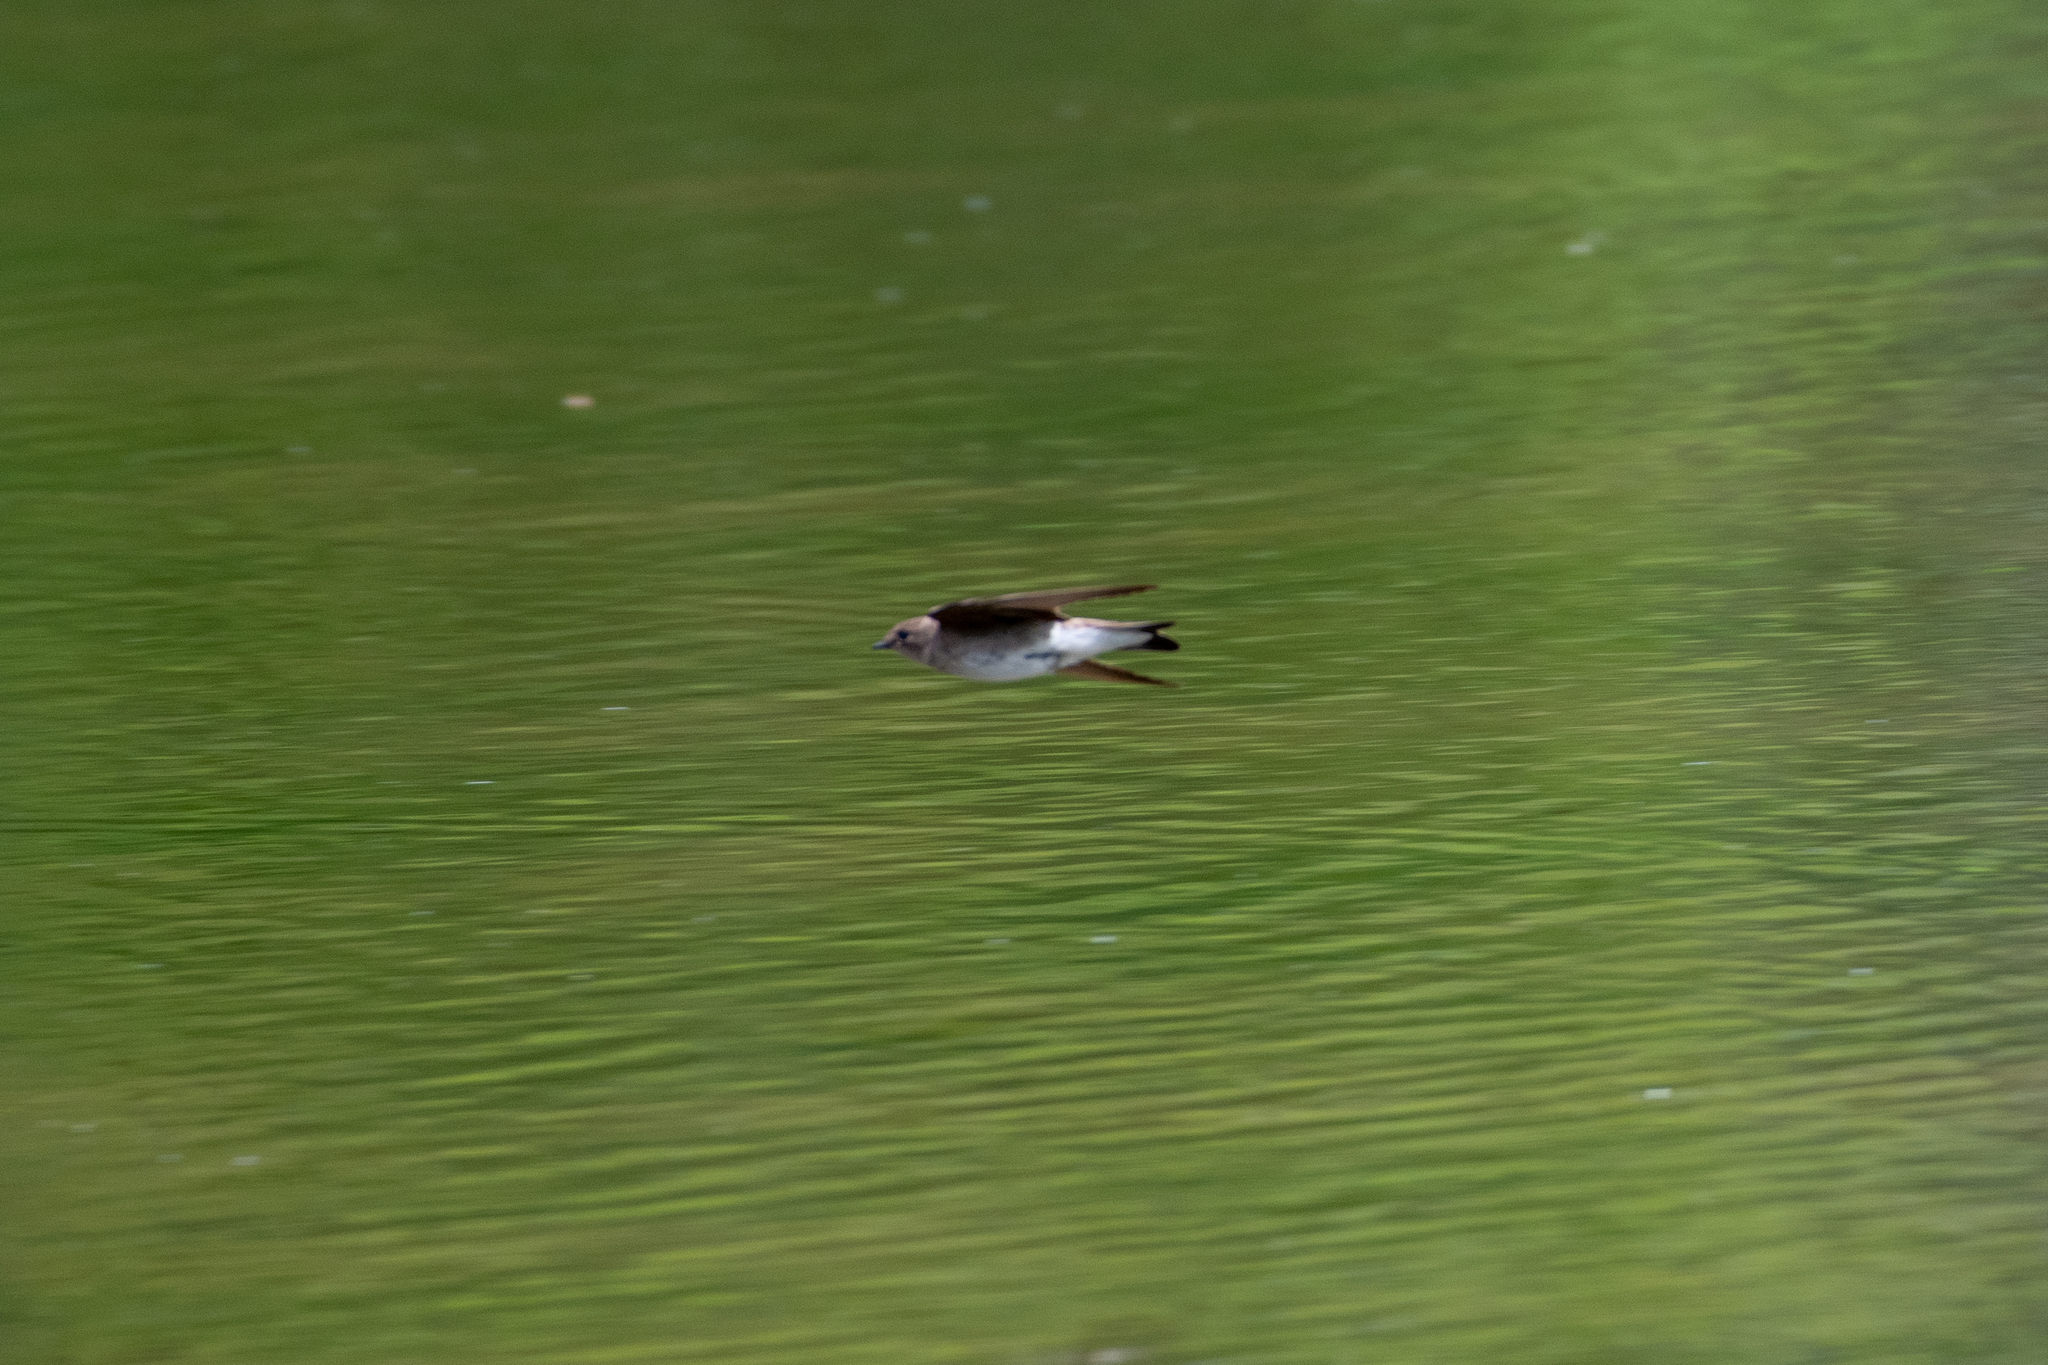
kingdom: Animalia
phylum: Chordata
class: Aves
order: Passeriformes
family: Hirundinidae
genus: Stelgidopteryx
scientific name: Stelgidopteryx serripennis
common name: Northern rough-winged swallow
